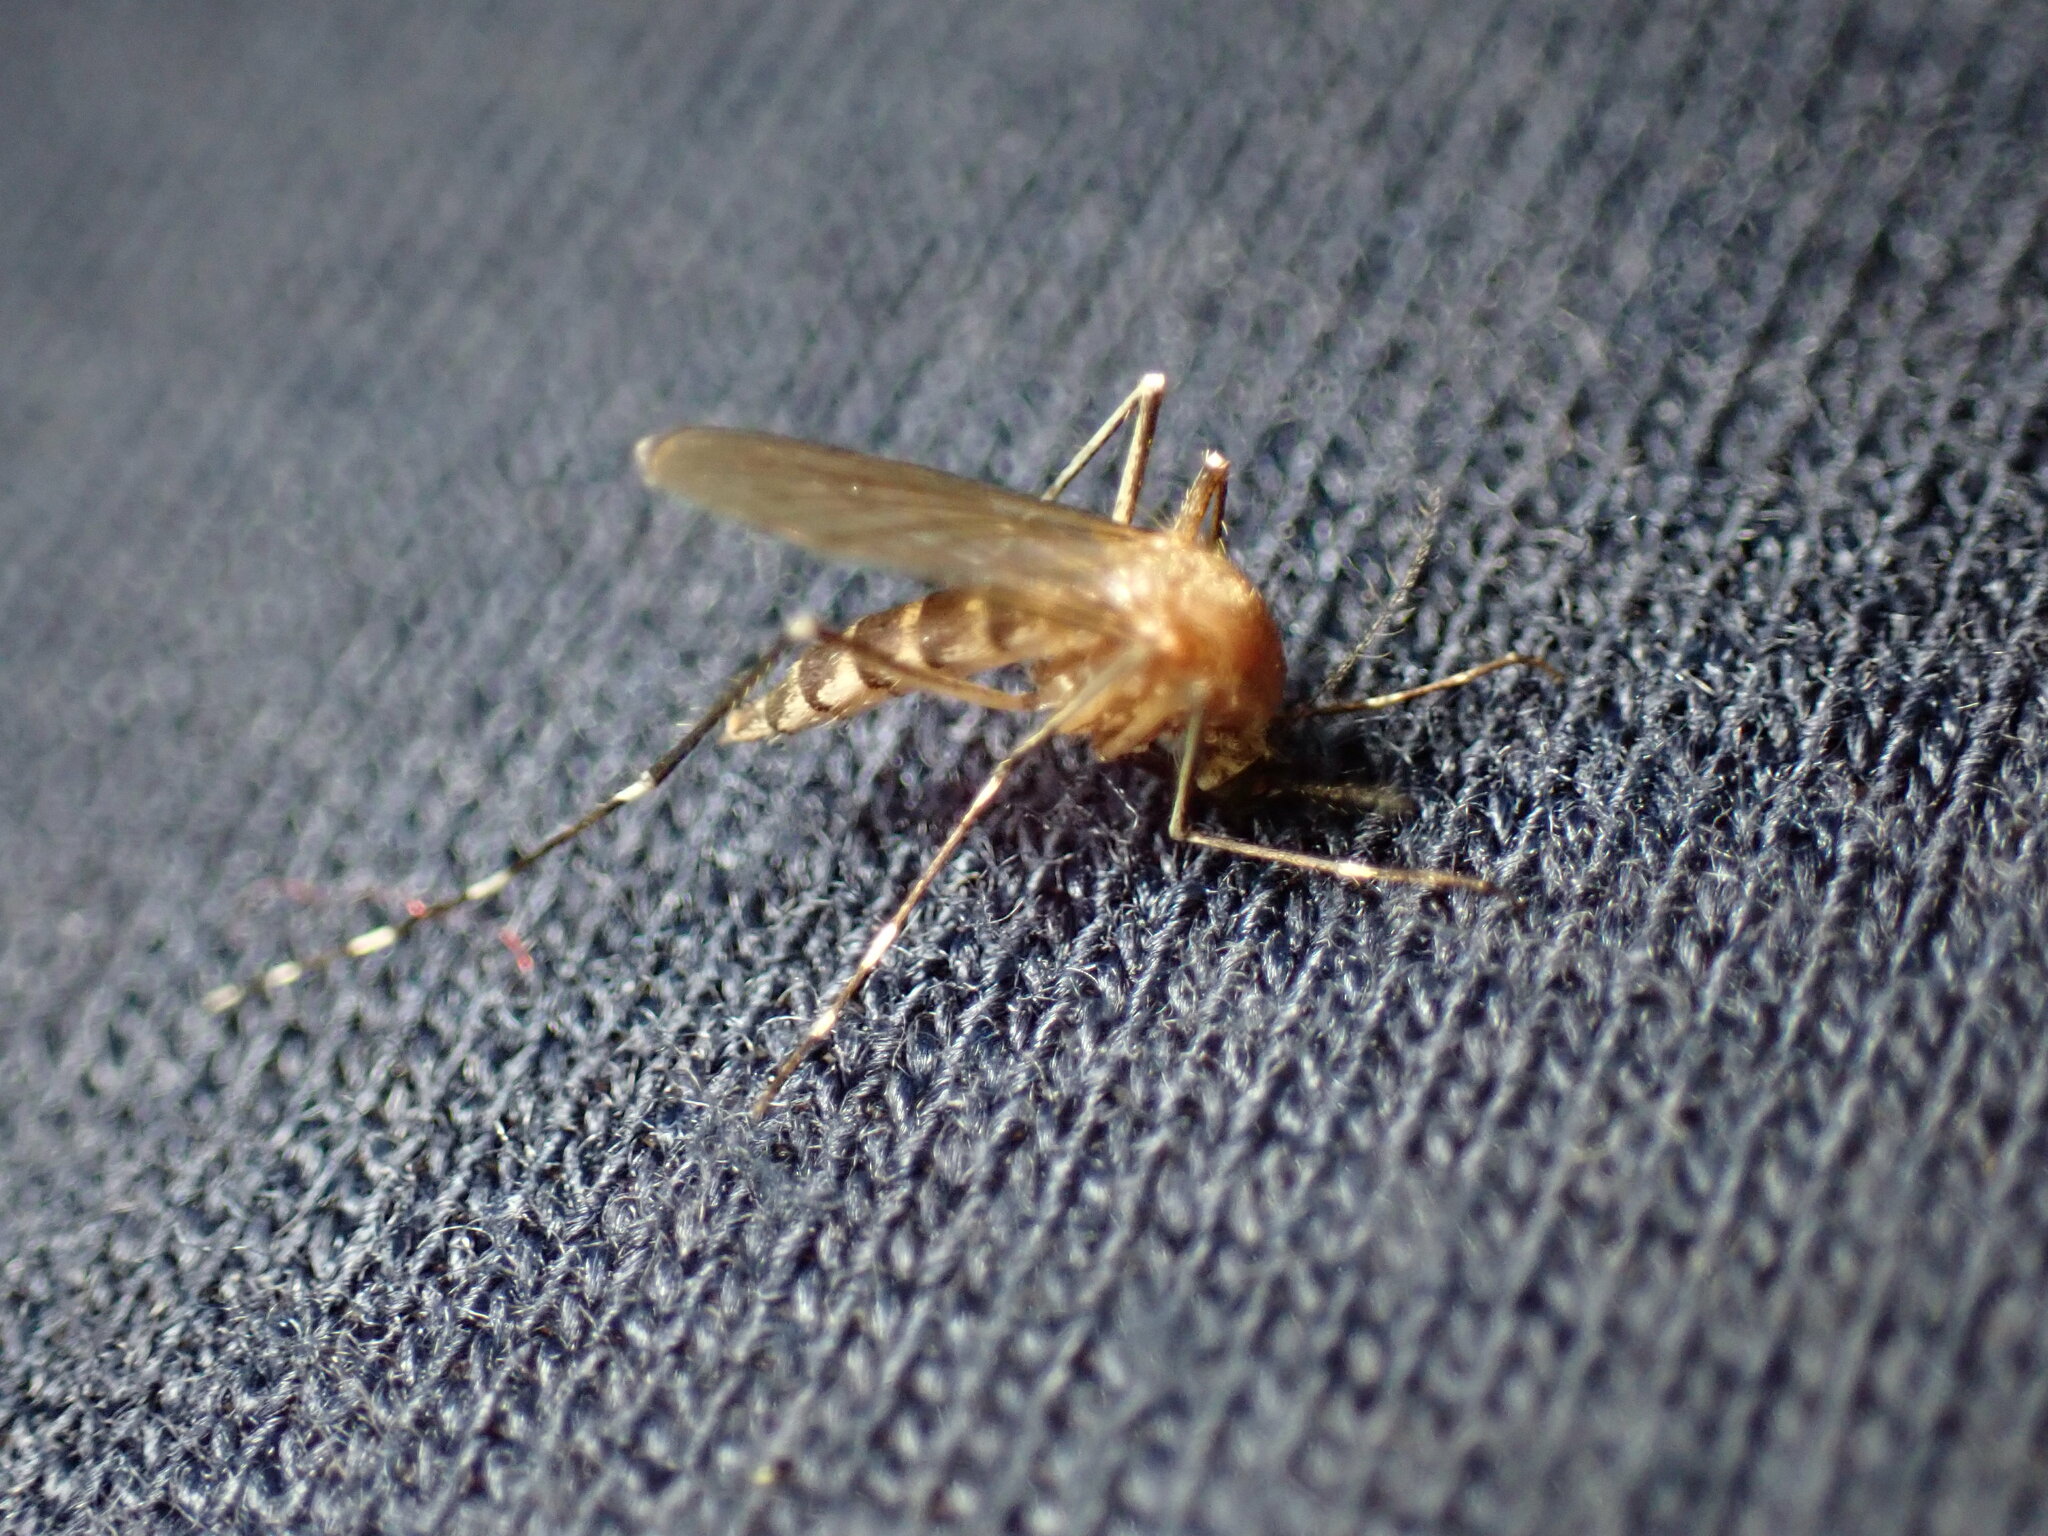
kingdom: Animalia
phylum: Arthropoda
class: Insecta
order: Diptera
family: Culicidae
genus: Aedes
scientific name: Aedes canadensis
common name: Woodland pool mosquito
